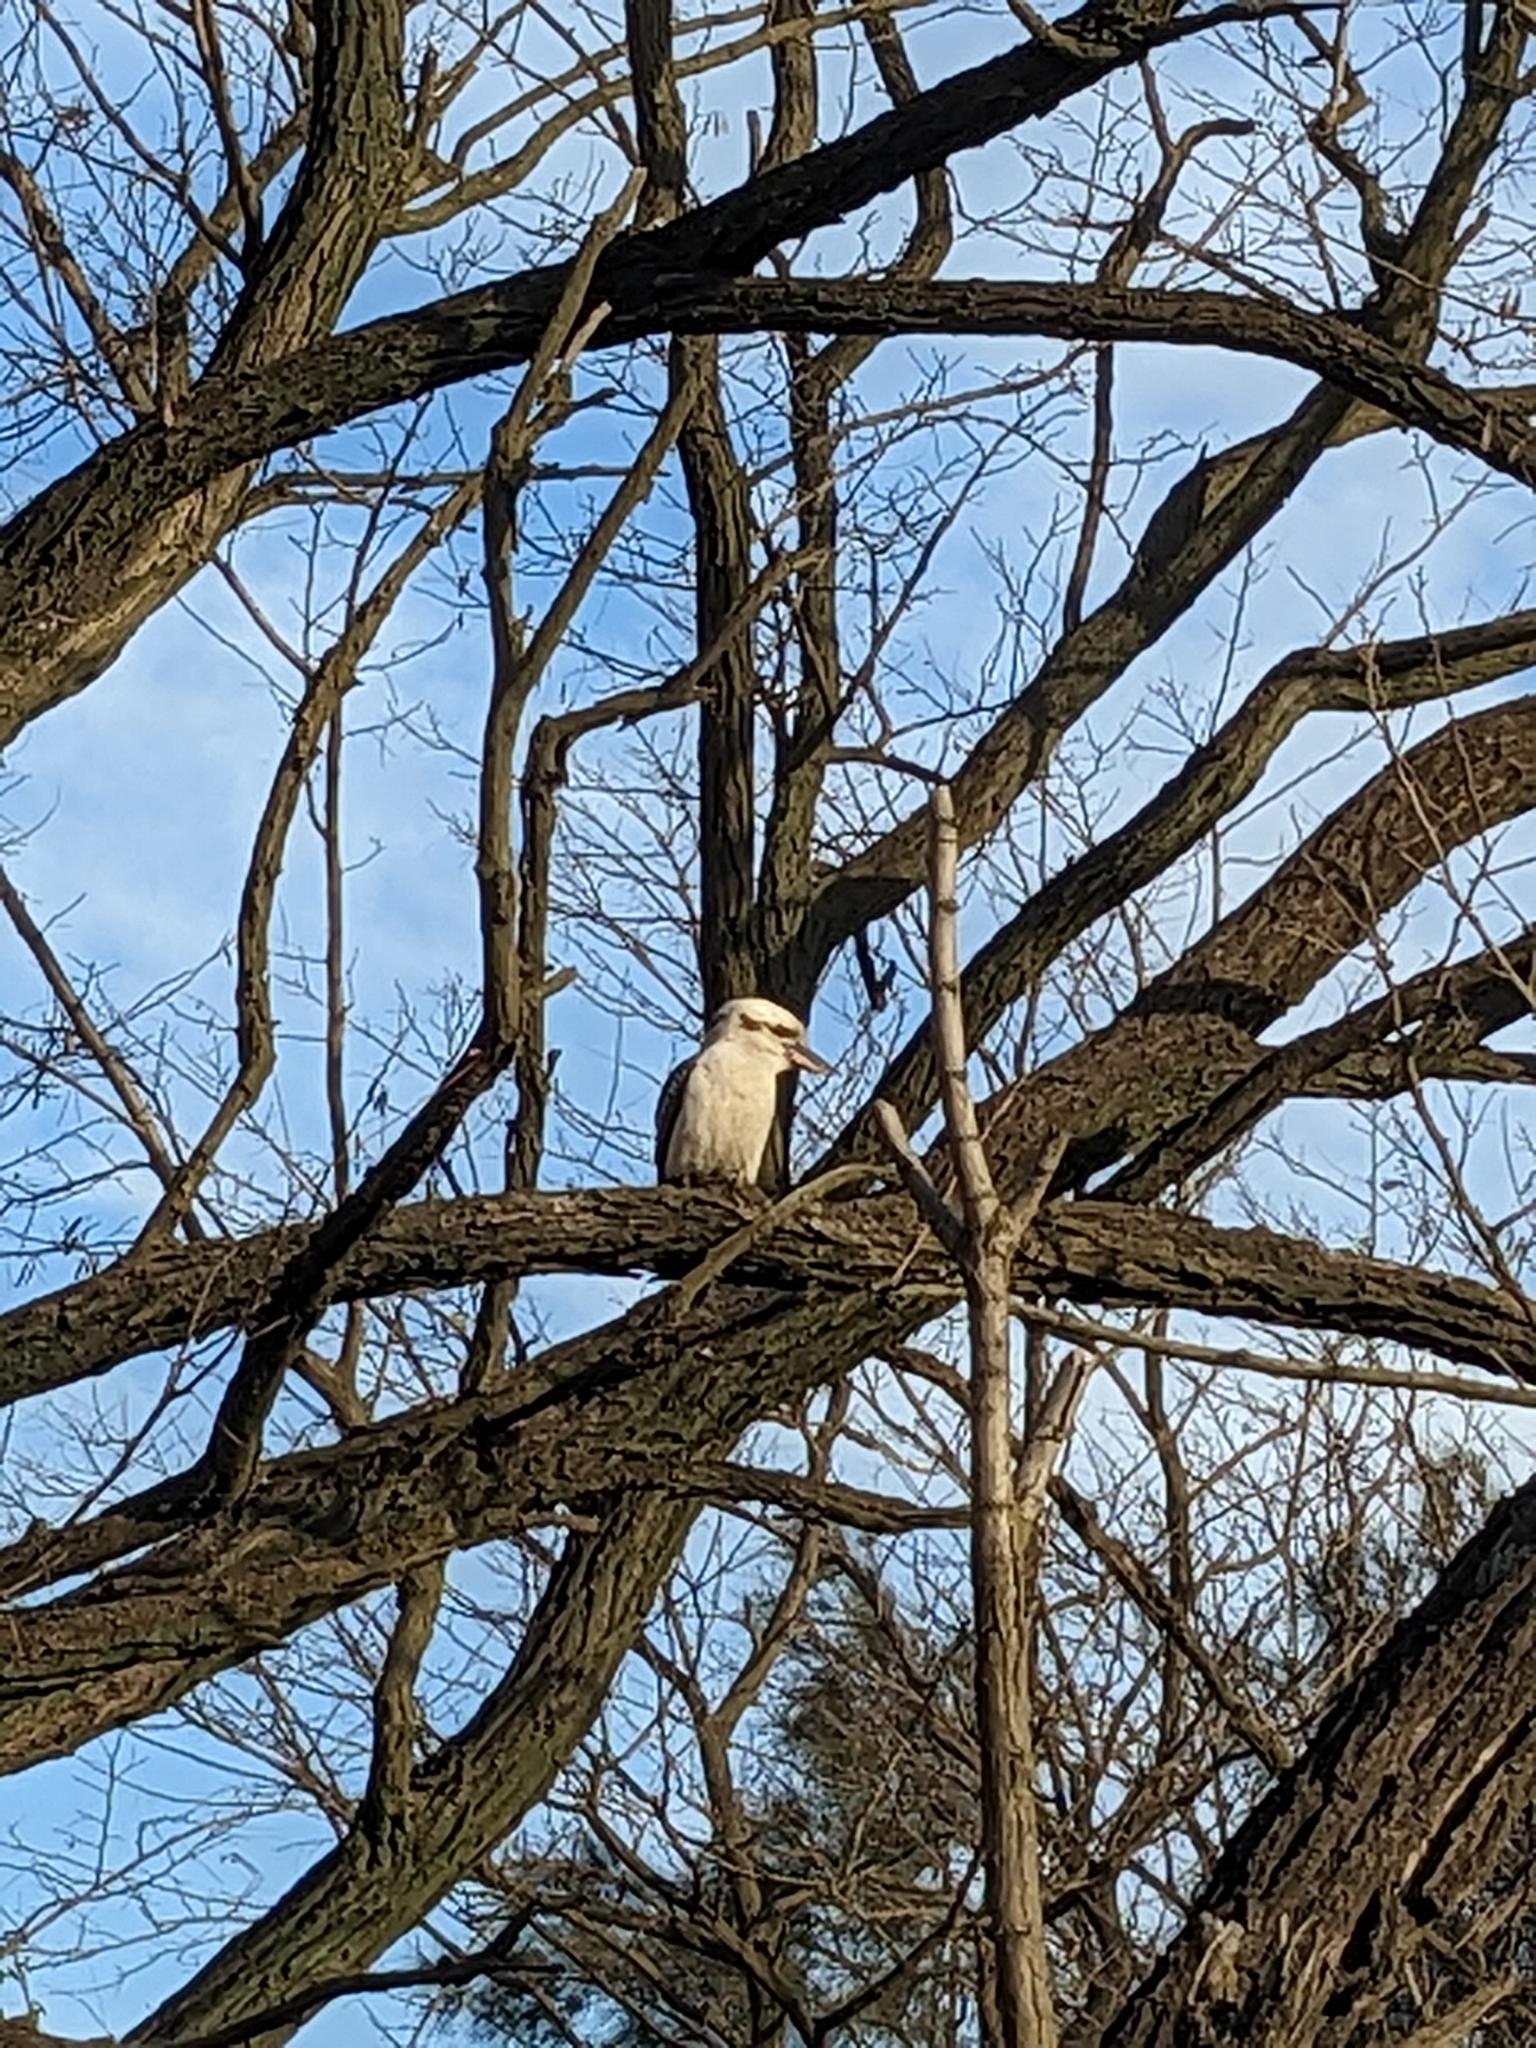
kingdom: Animalia
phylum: Chordata
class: Aves
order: Coraciiformes
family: Alcedinidae
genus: Dacelo
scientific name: Dacelo novaeguineae
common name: Laughing kookaburra
